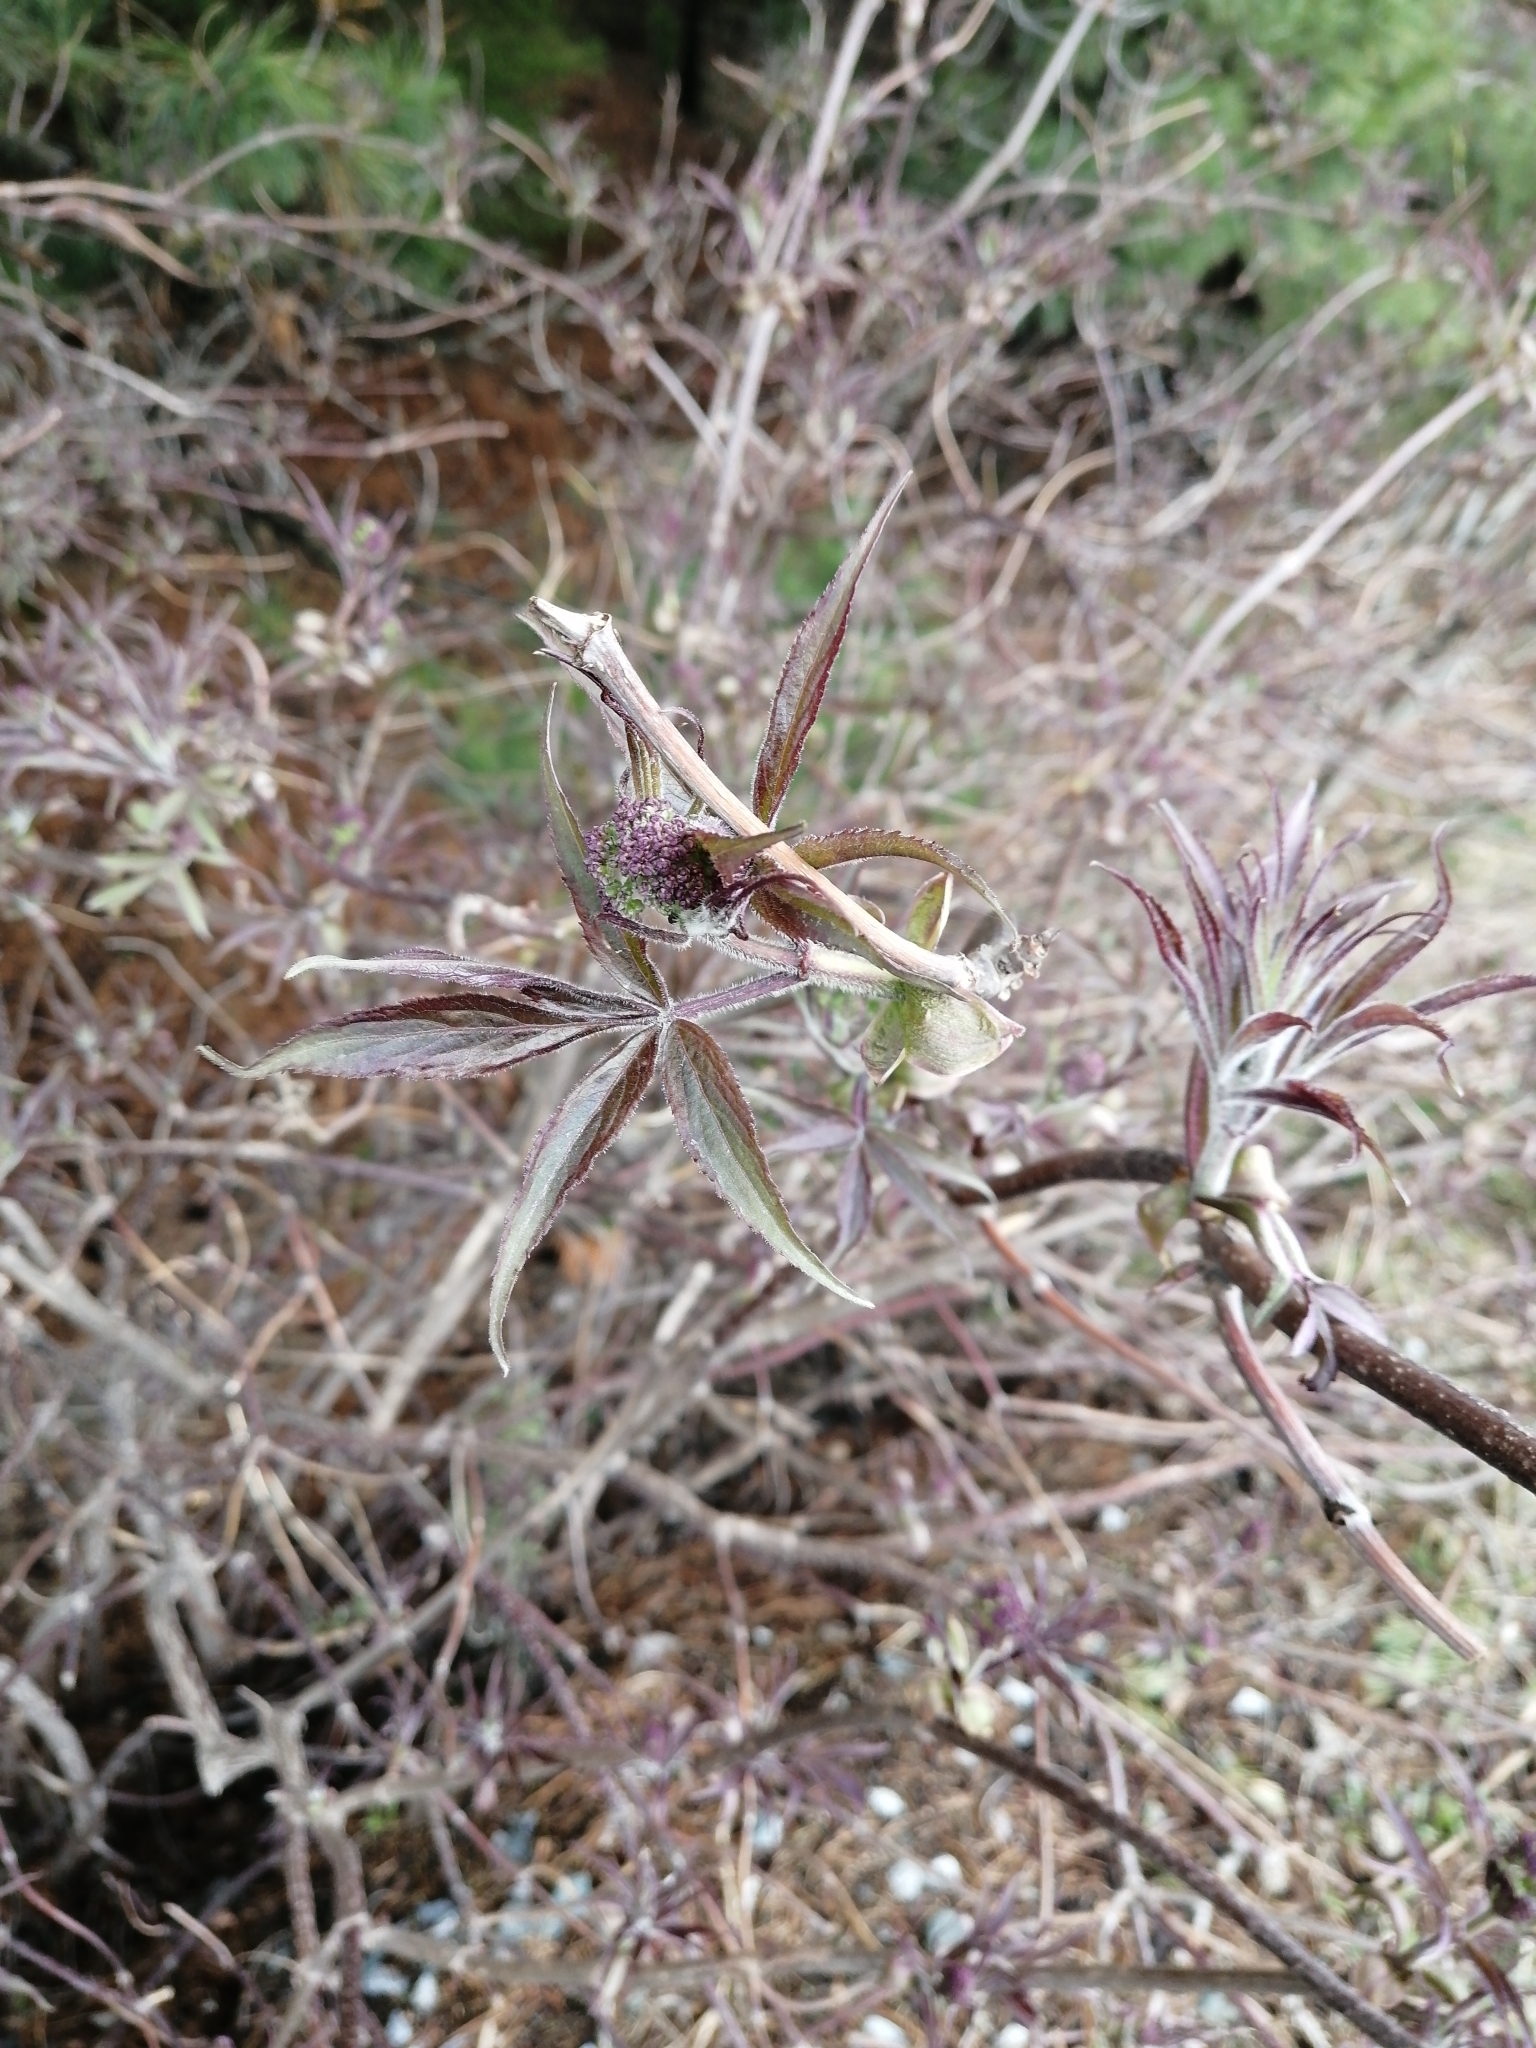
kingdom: Plantae
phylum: Tracheophyta
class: Magnoliopsida
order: Dipsacales
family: Viburnaceae
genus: Sambucus
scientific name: Sambucus sibirica
